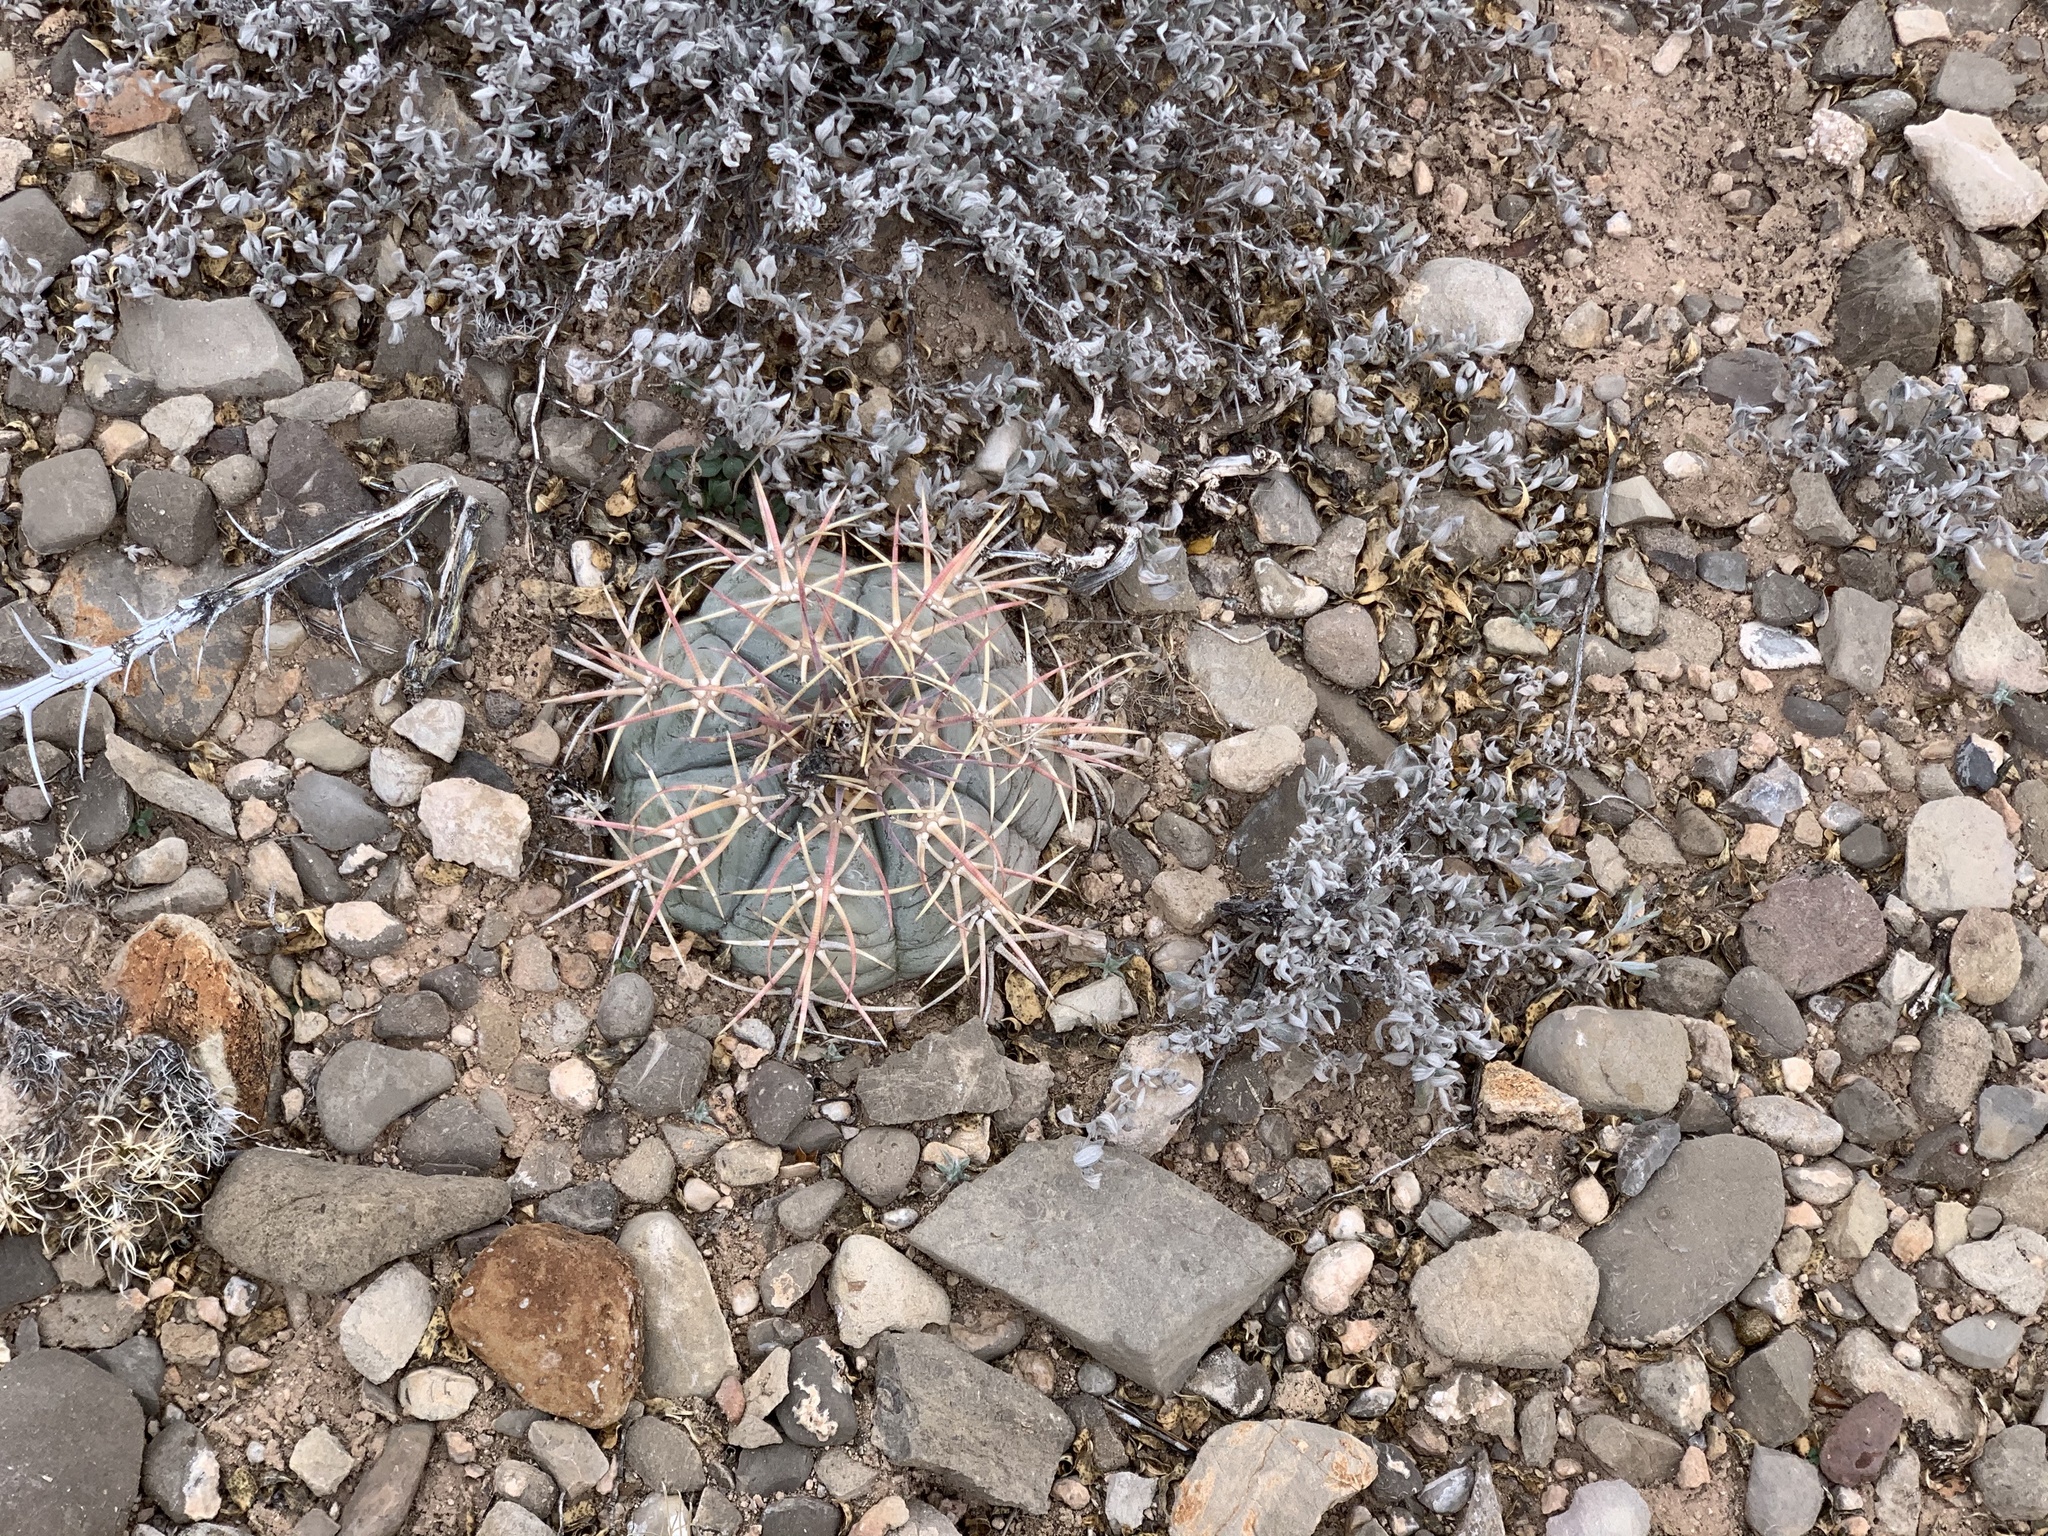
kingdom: Plantae
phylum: Tracheophyta
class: Magnoliopsida
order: Caryophyllales
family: Cactaceae
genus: Echinocactus
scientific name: Echinocactus horizonthalonius
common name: Devilshead
